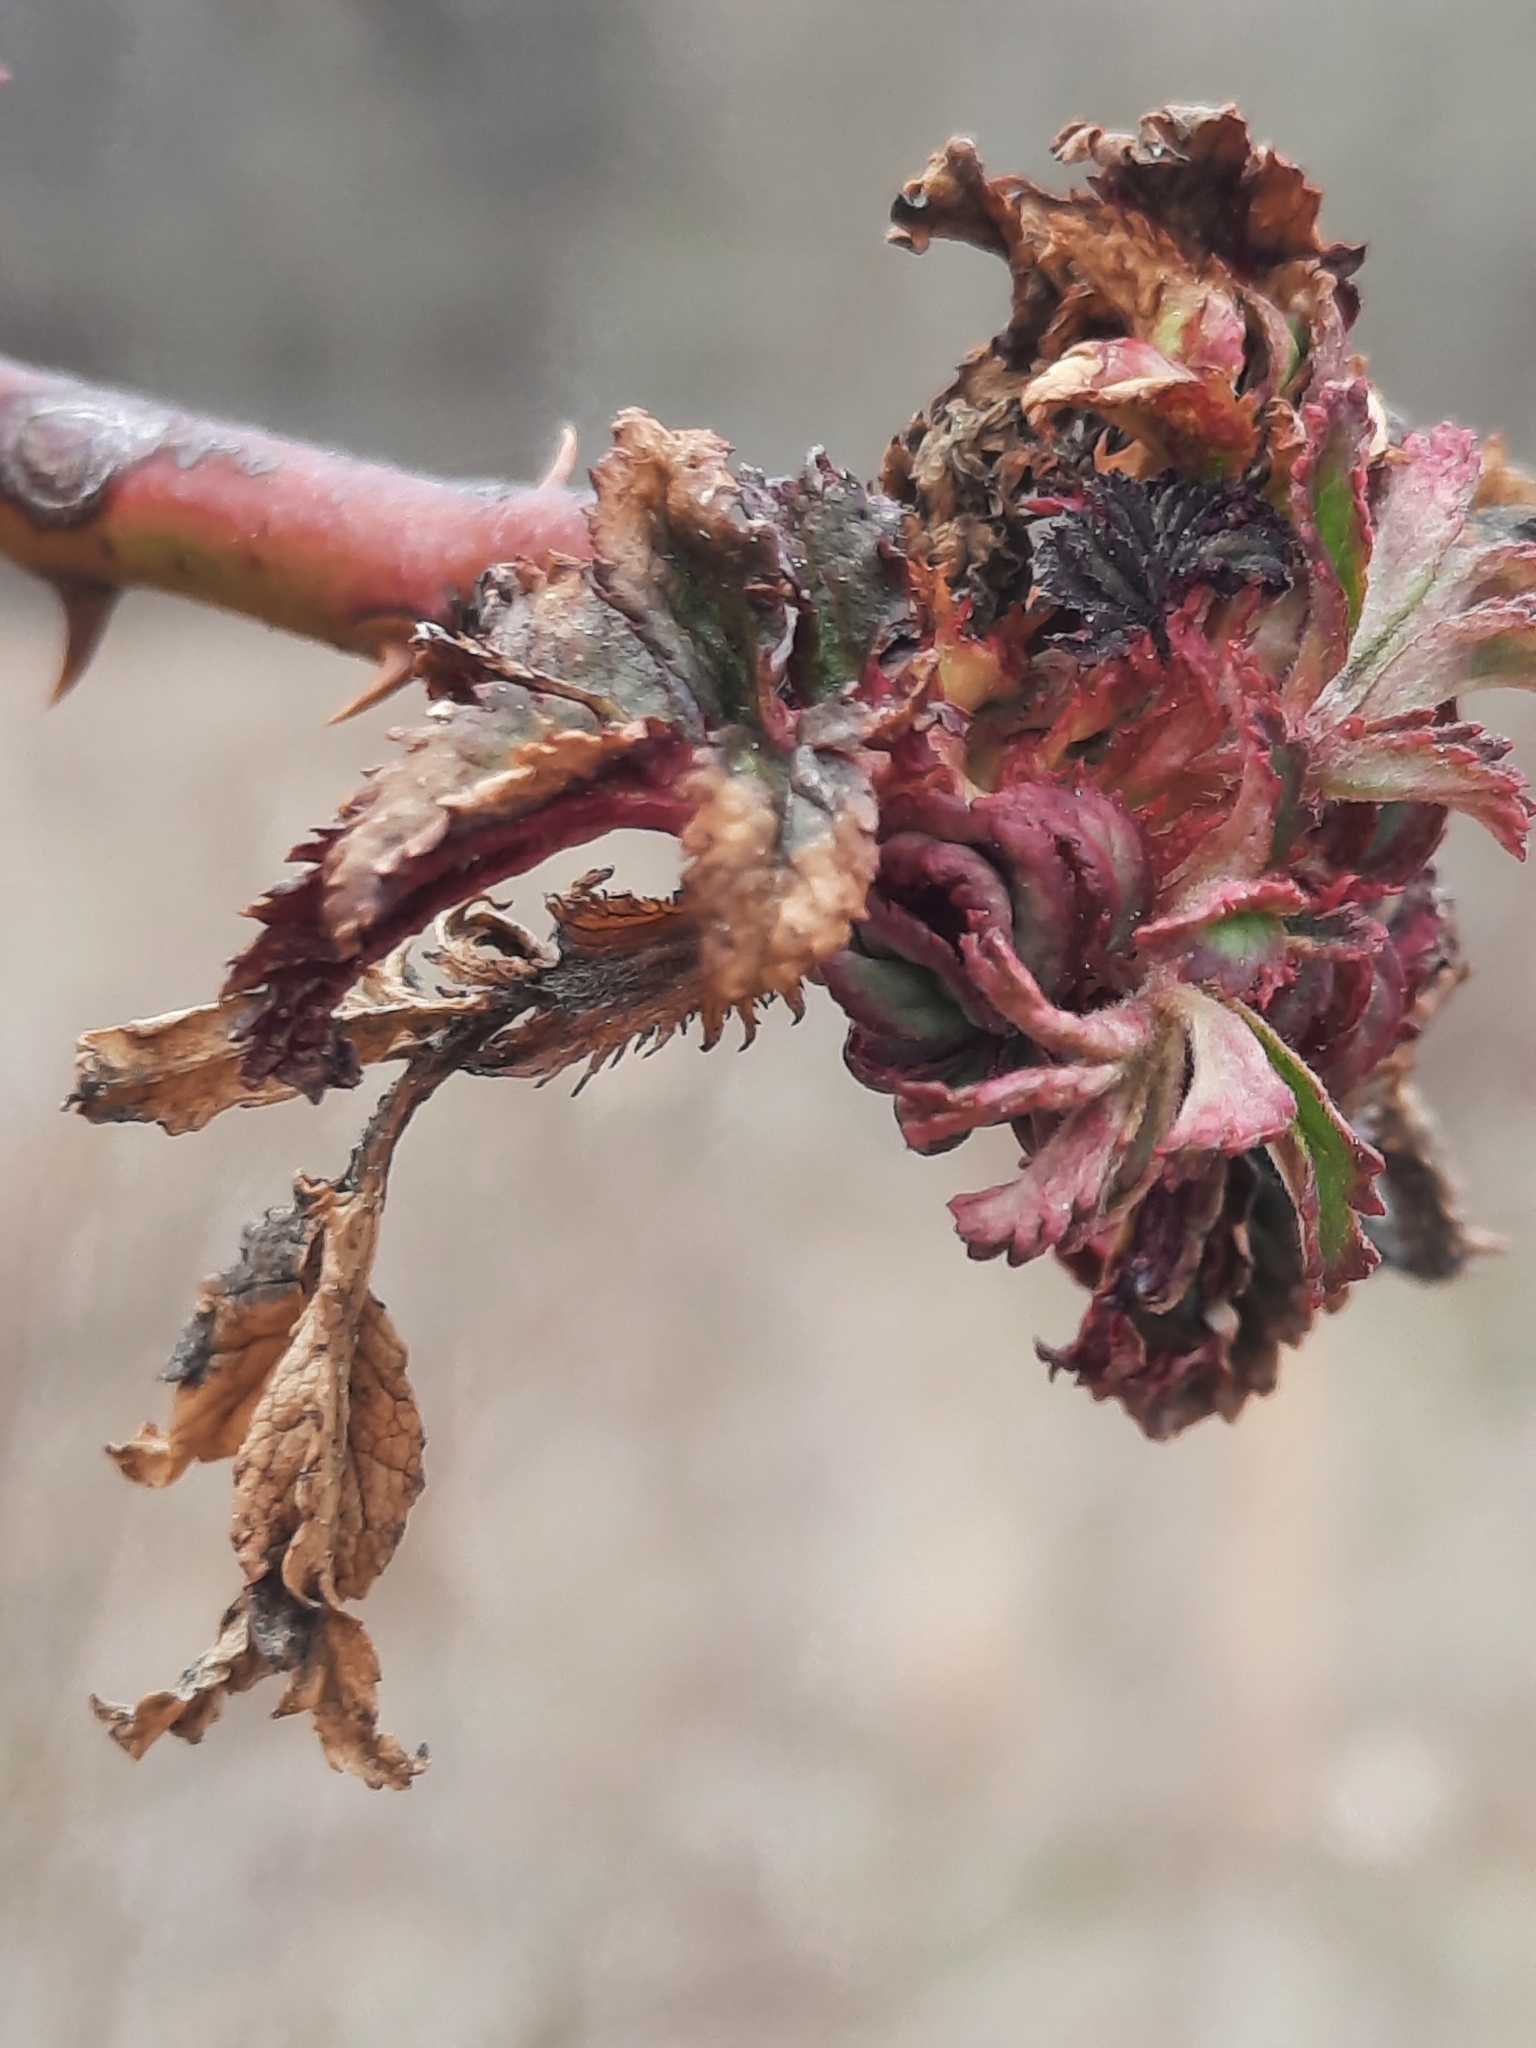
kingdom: Viruses
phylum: Negarnaviricota
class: Ellioviricetes
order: Bunyavirales
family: Fimoviridae
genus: Emaravirus
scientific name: Emaravirus rosae
